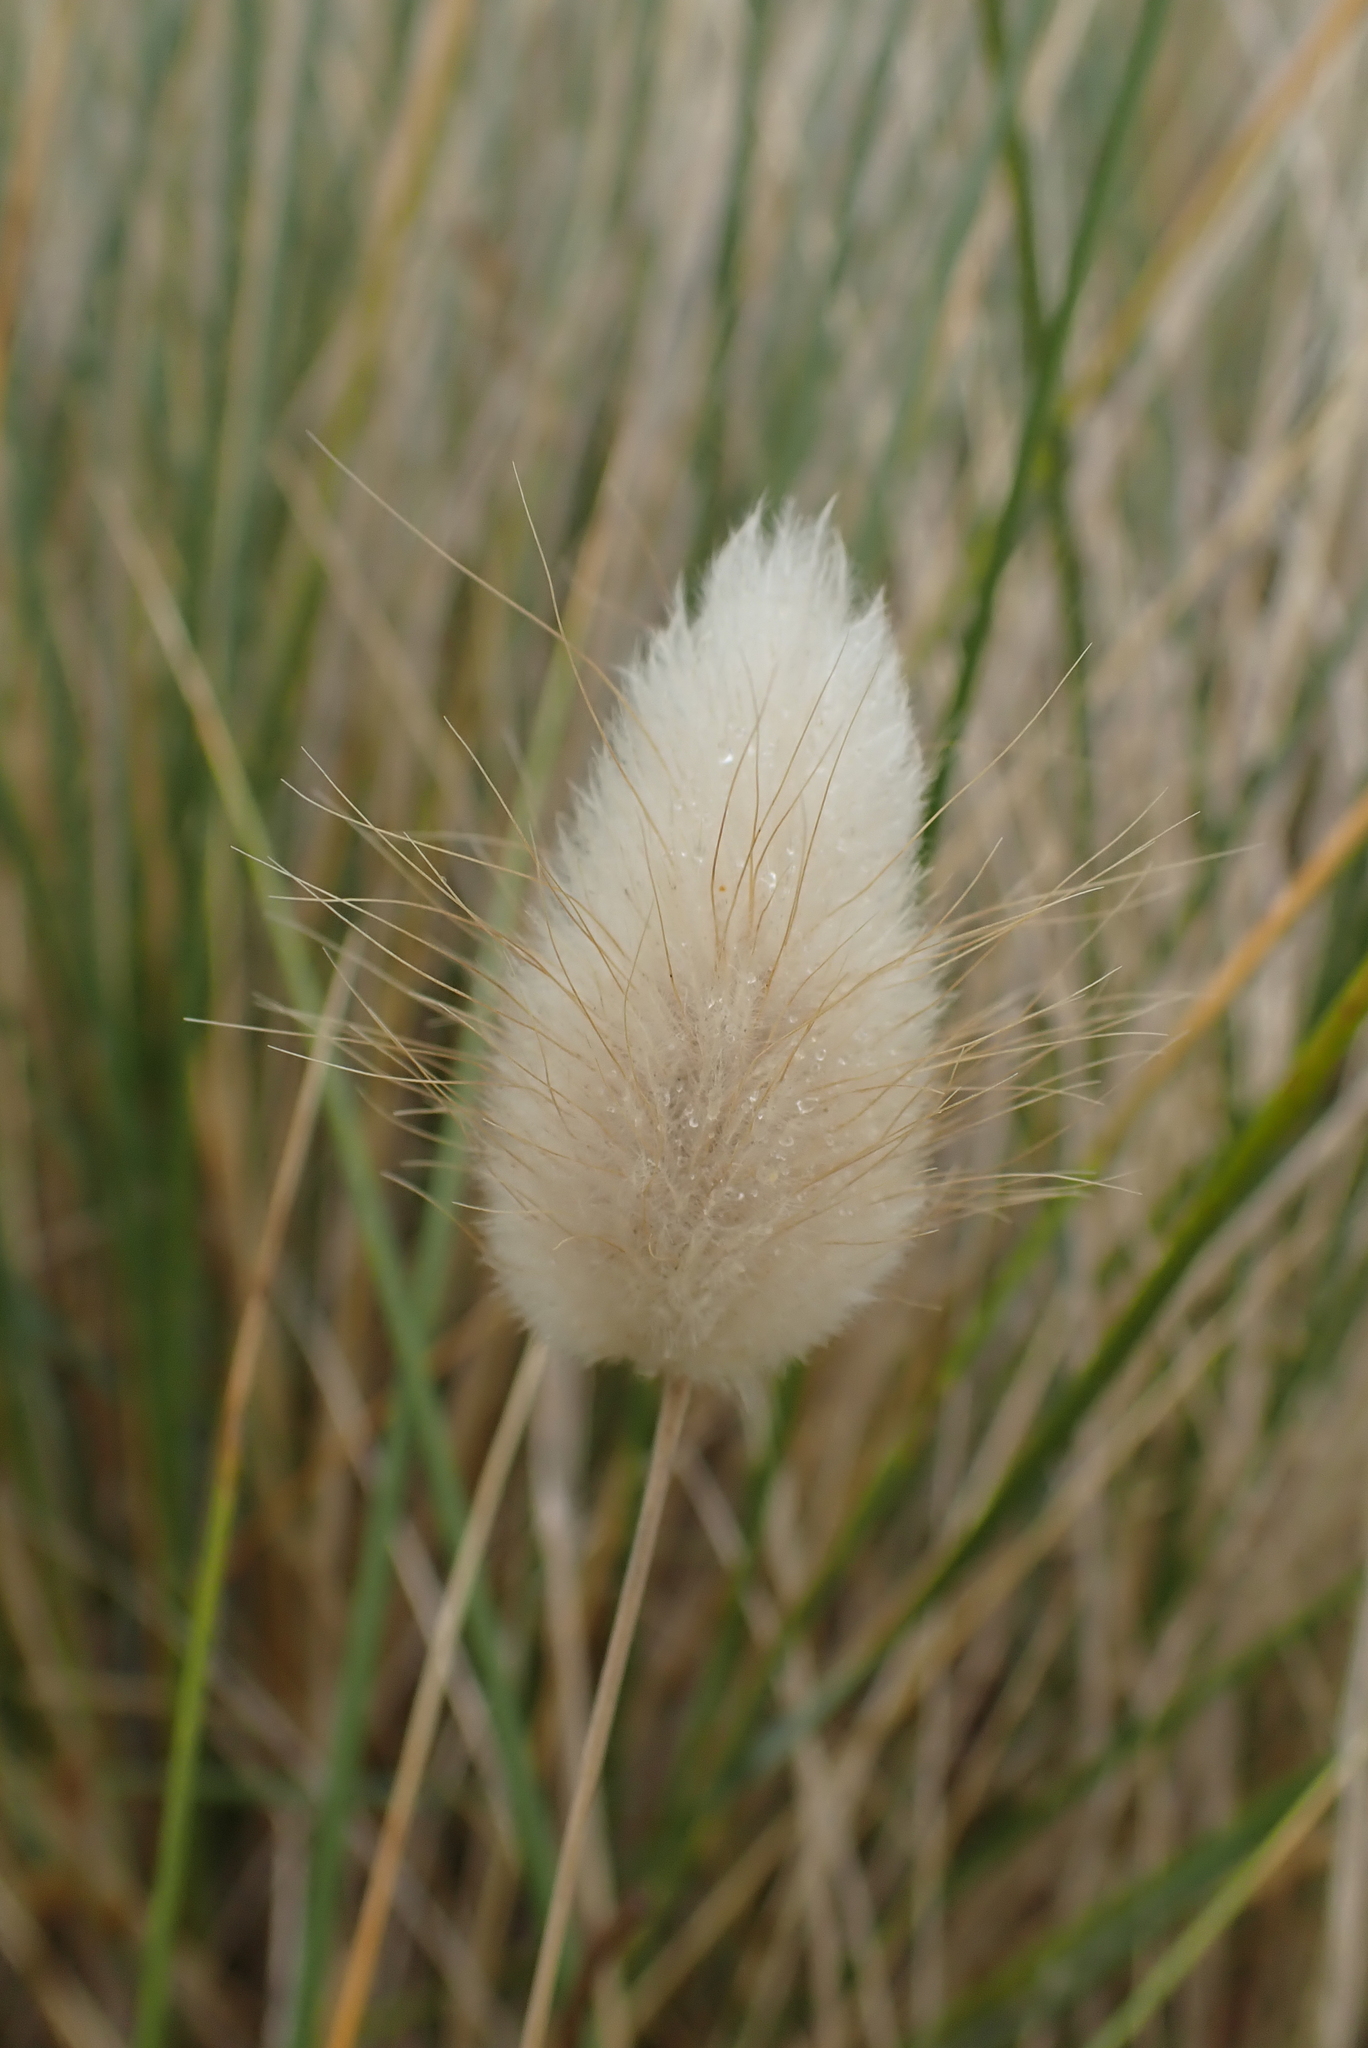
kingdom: Plantae
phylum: Tracheophyta
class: Liliopsida
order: Poales
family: Poaceae
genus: Lagurus
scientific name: Lagurus ovatus
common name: Hare's-tail
